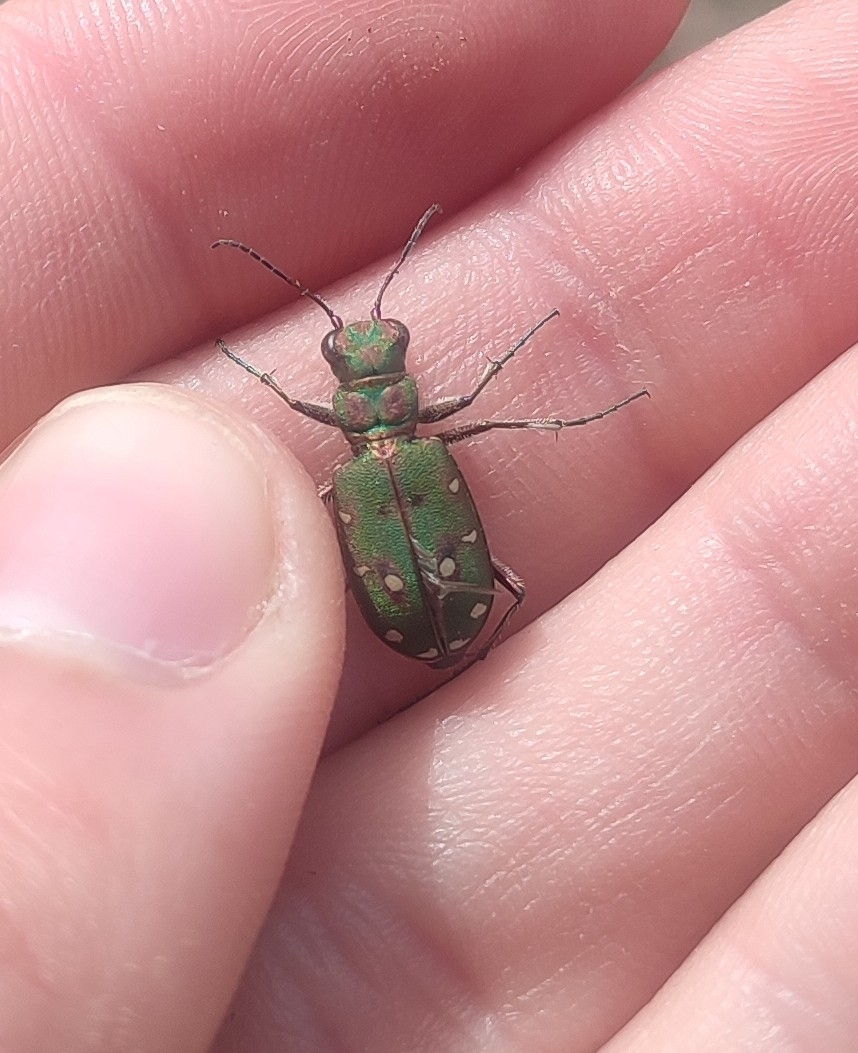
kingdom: Animalia
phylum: Arthropoda
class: Insecta
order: Coleoptera
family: Carabidae
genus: Cicindela
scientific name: Cicindela maroccana
